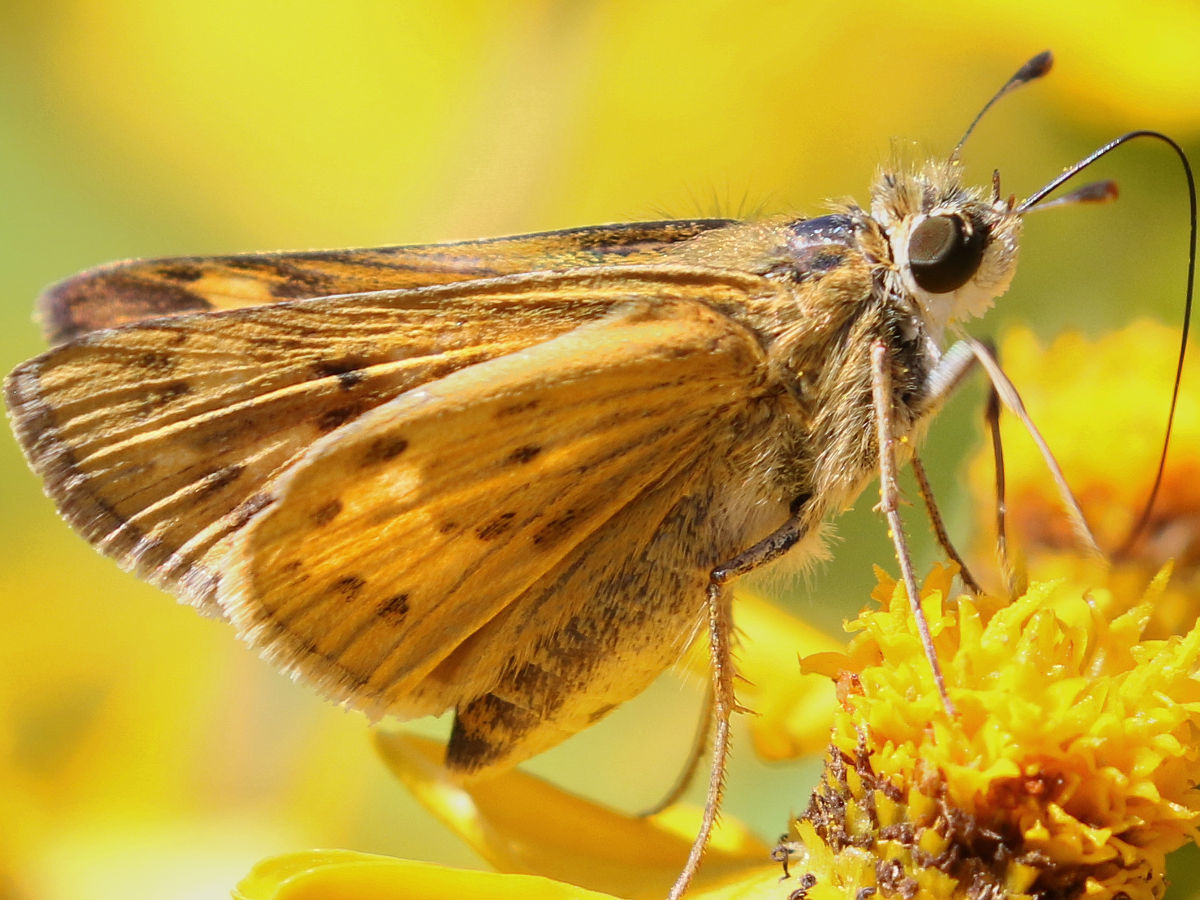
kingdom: Animalia
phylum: Arthropoda
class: Insecta
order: Lepidoptera
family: Hesperiidae
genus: Hylephila
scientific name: Hylephila phyleus
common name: Fiery skipper
